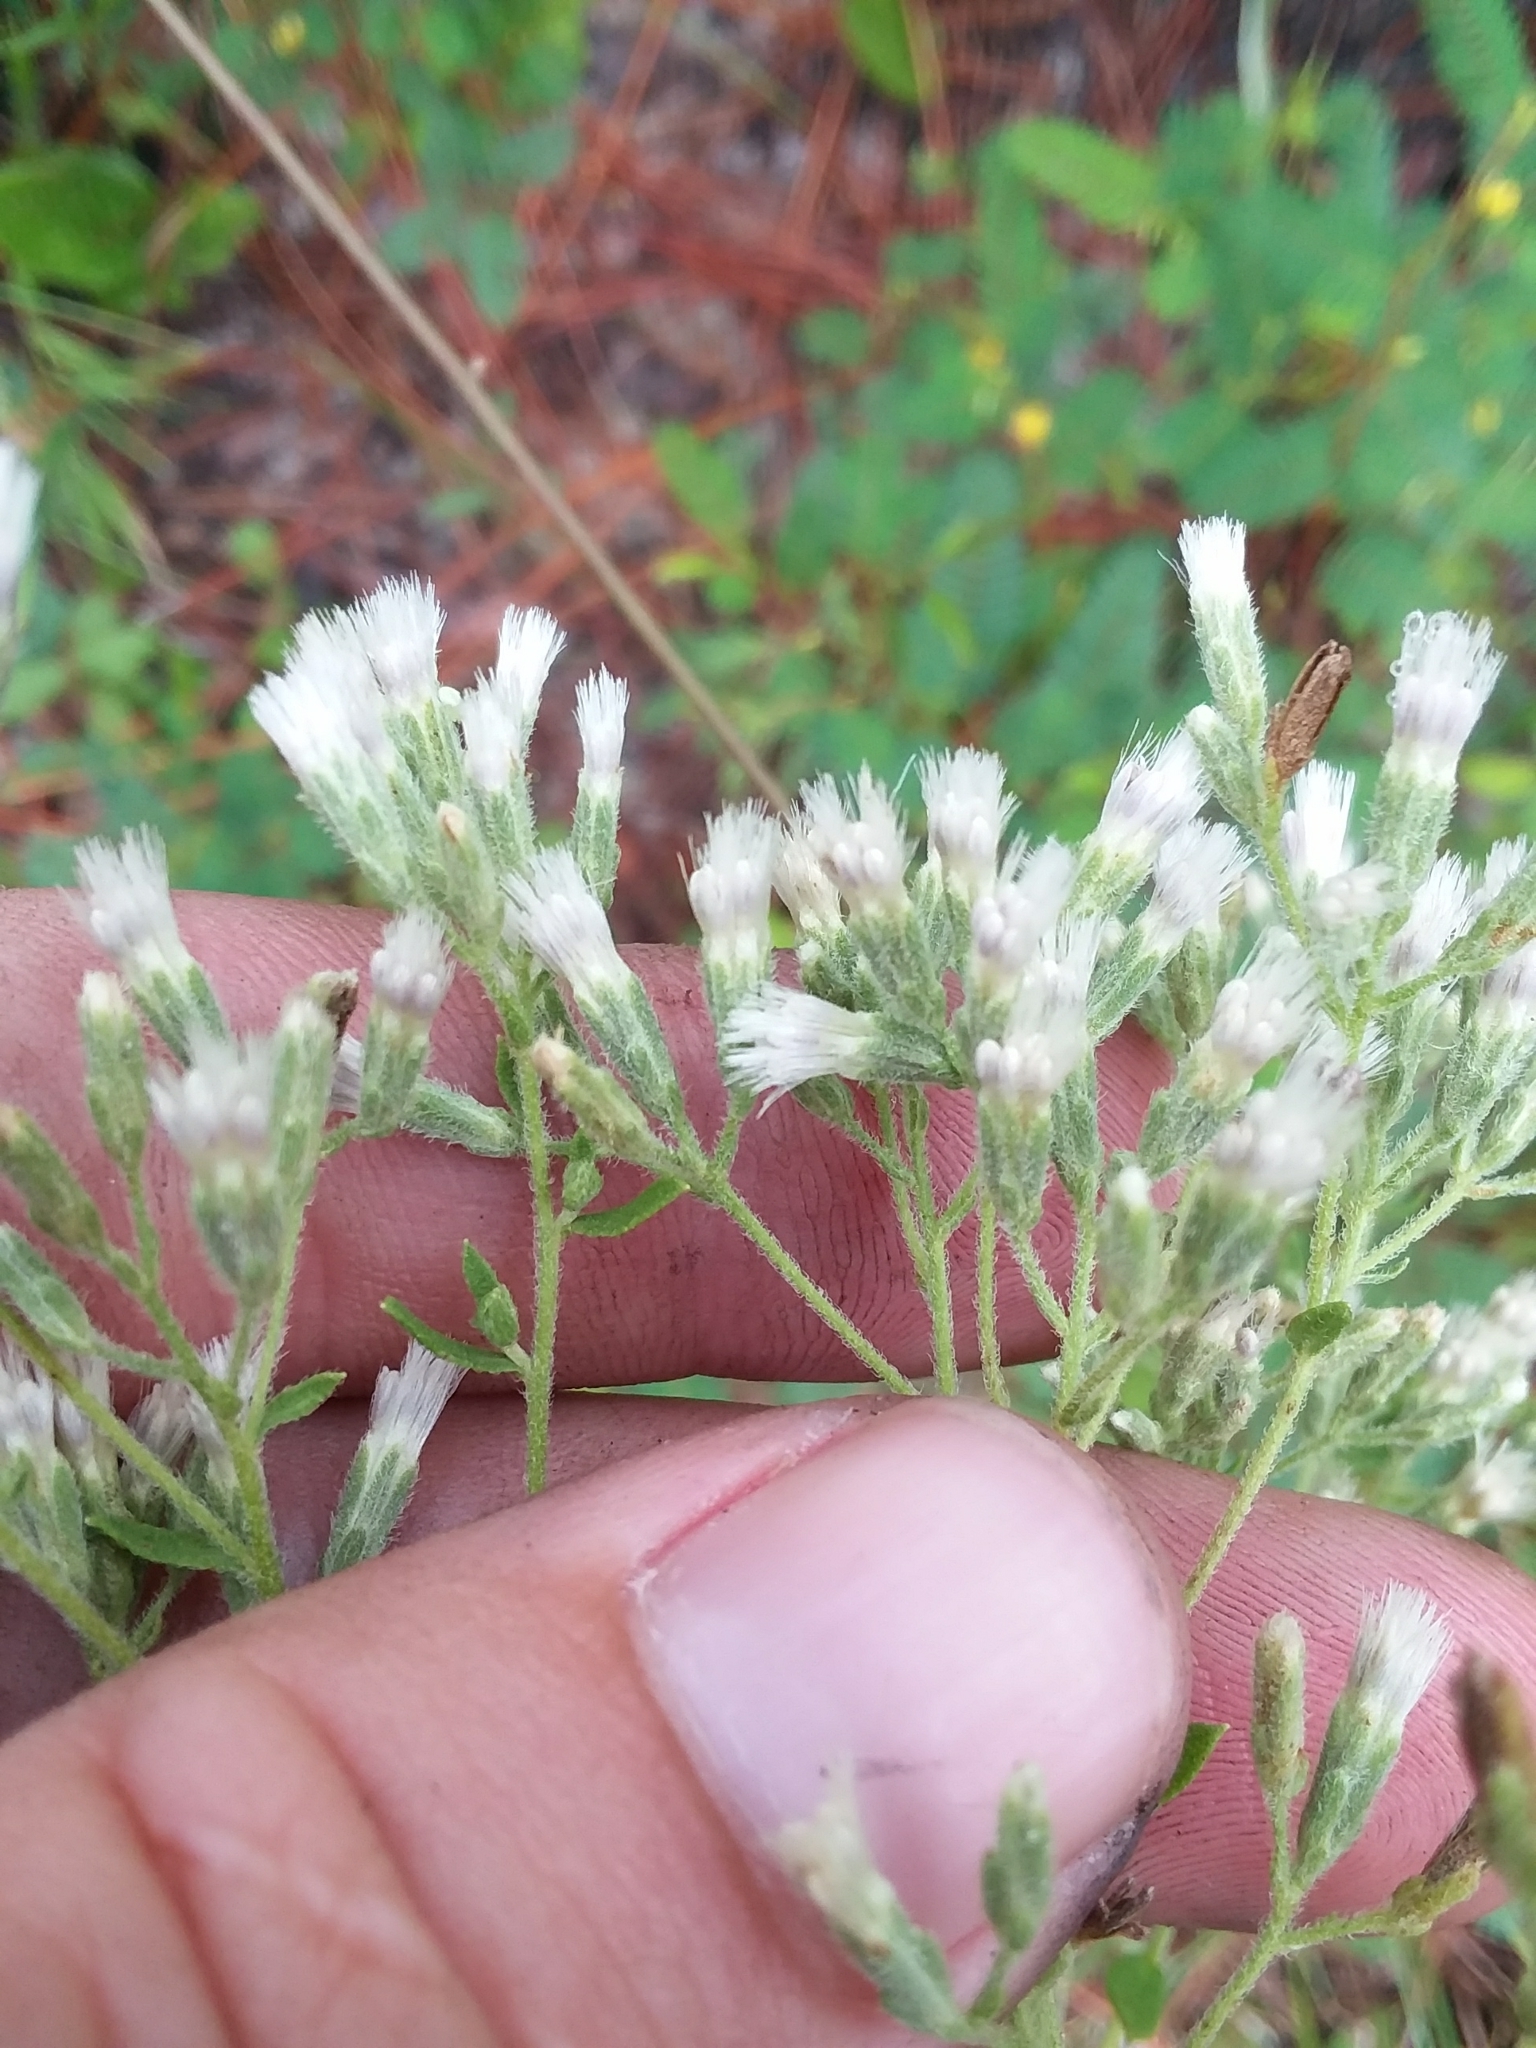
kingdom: Plantae
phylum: Tracheophyta
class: Magnoliopsida
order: Asterales
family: Asteraceae
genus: Eupatorium
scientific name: Eupatorium linearifolium
